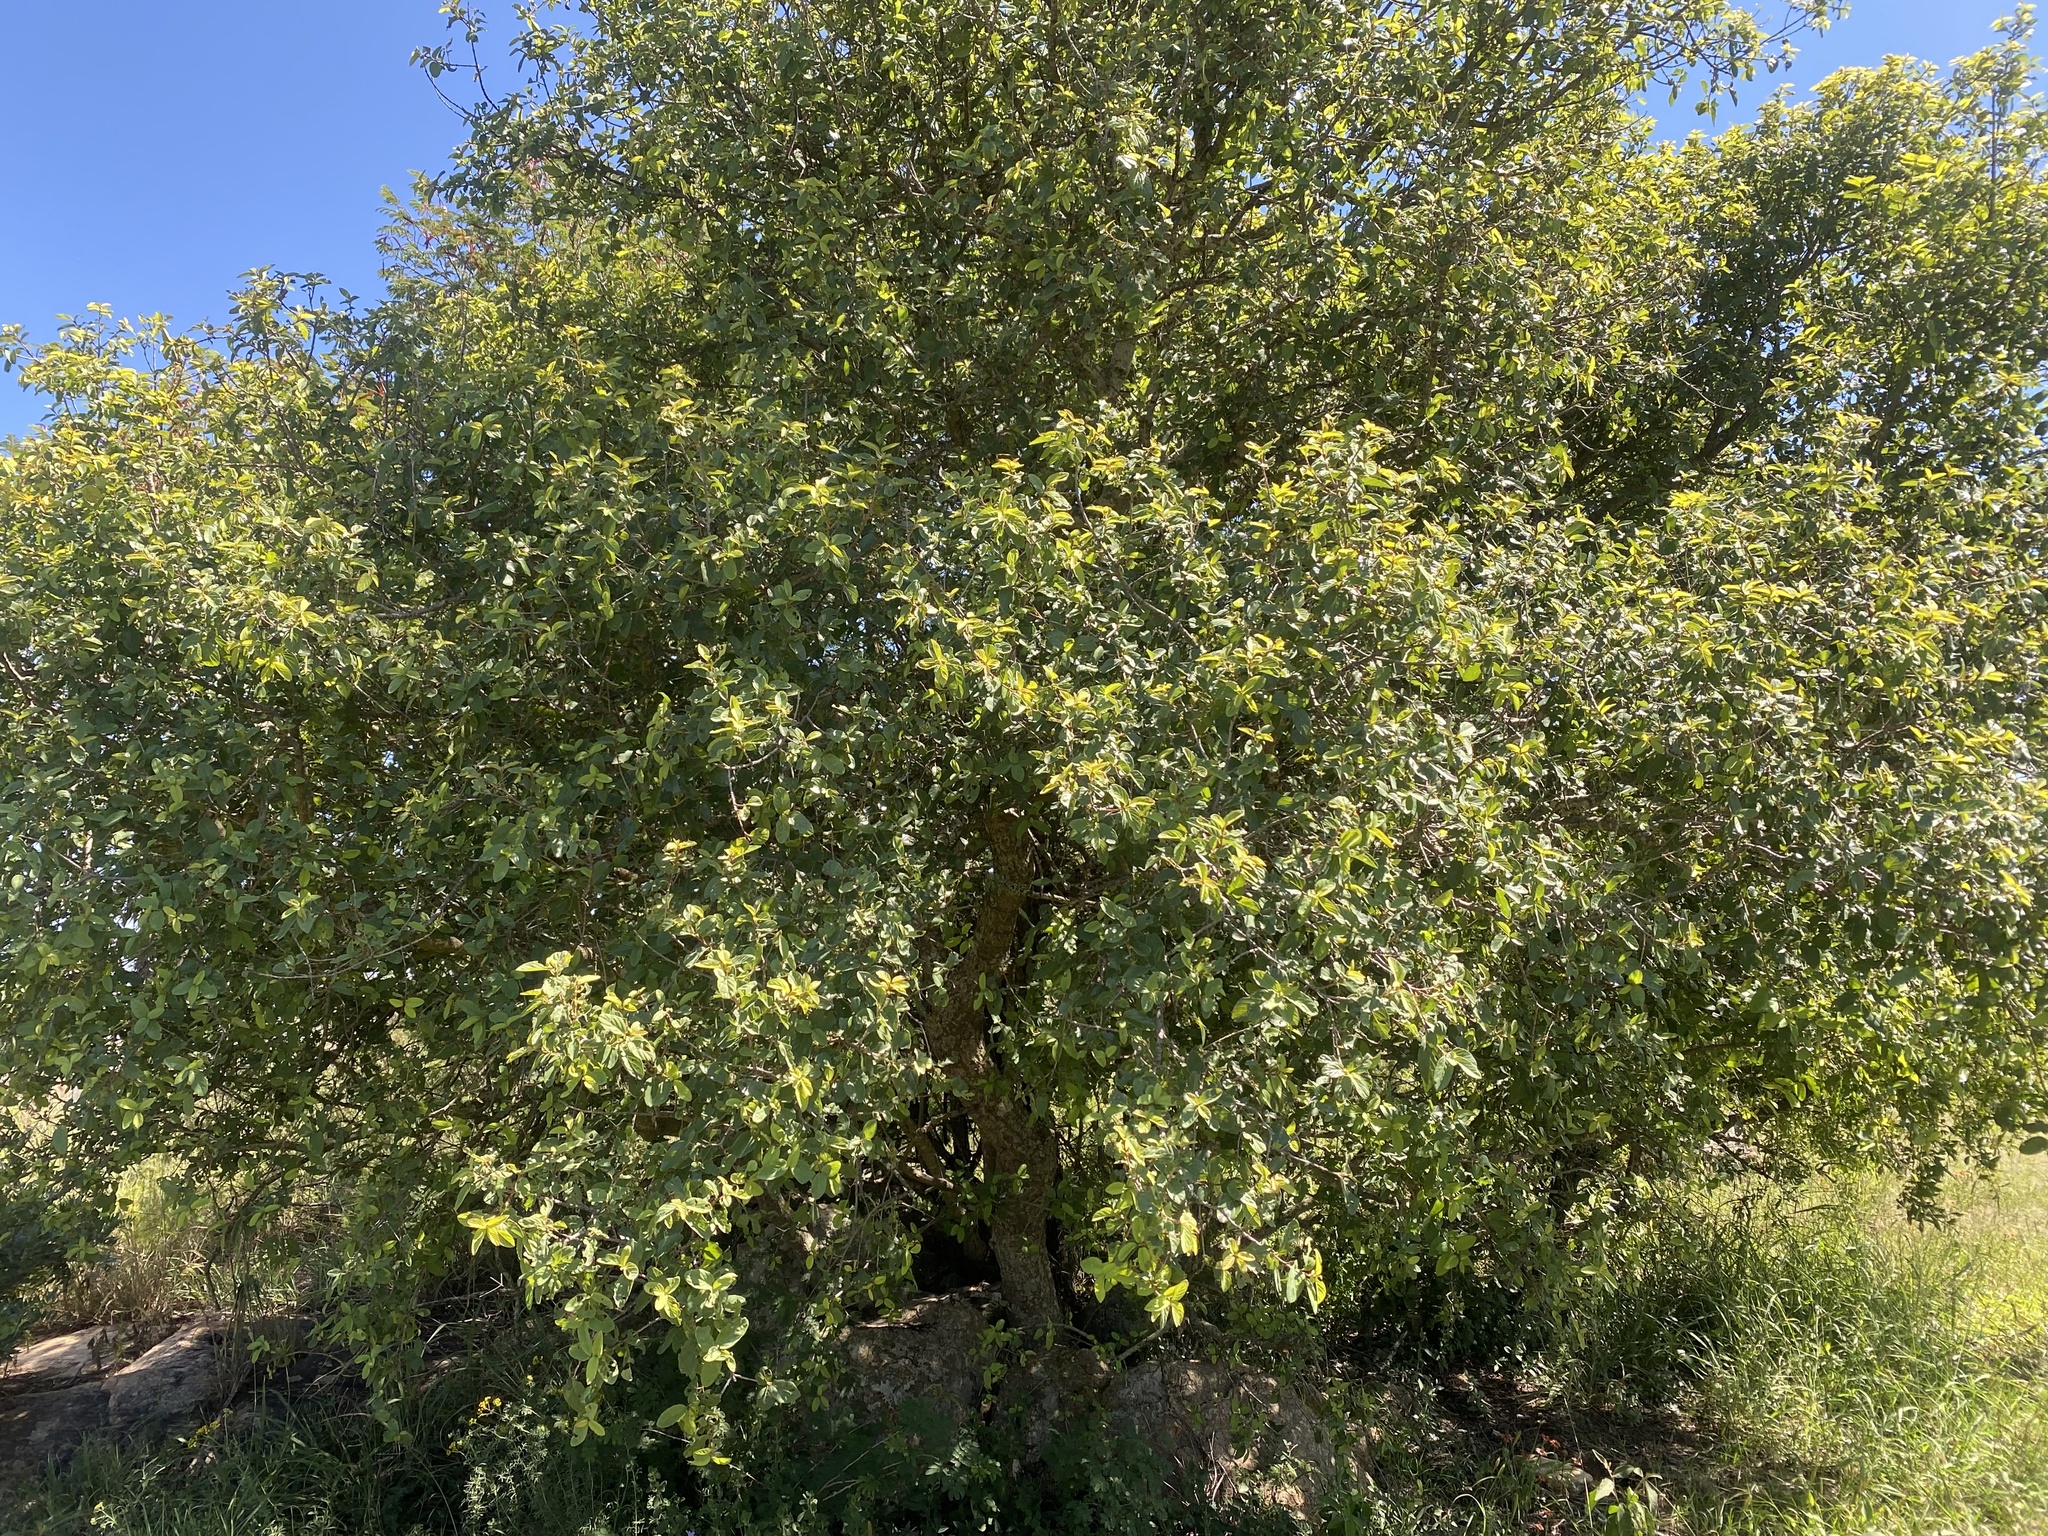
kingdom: Plantae
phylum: Tracheophyta
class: Magnoliopsida
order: Rosales
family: Rhamnaceae
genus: Phyllogeiton
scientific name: Phyllogeiton zeyheri
